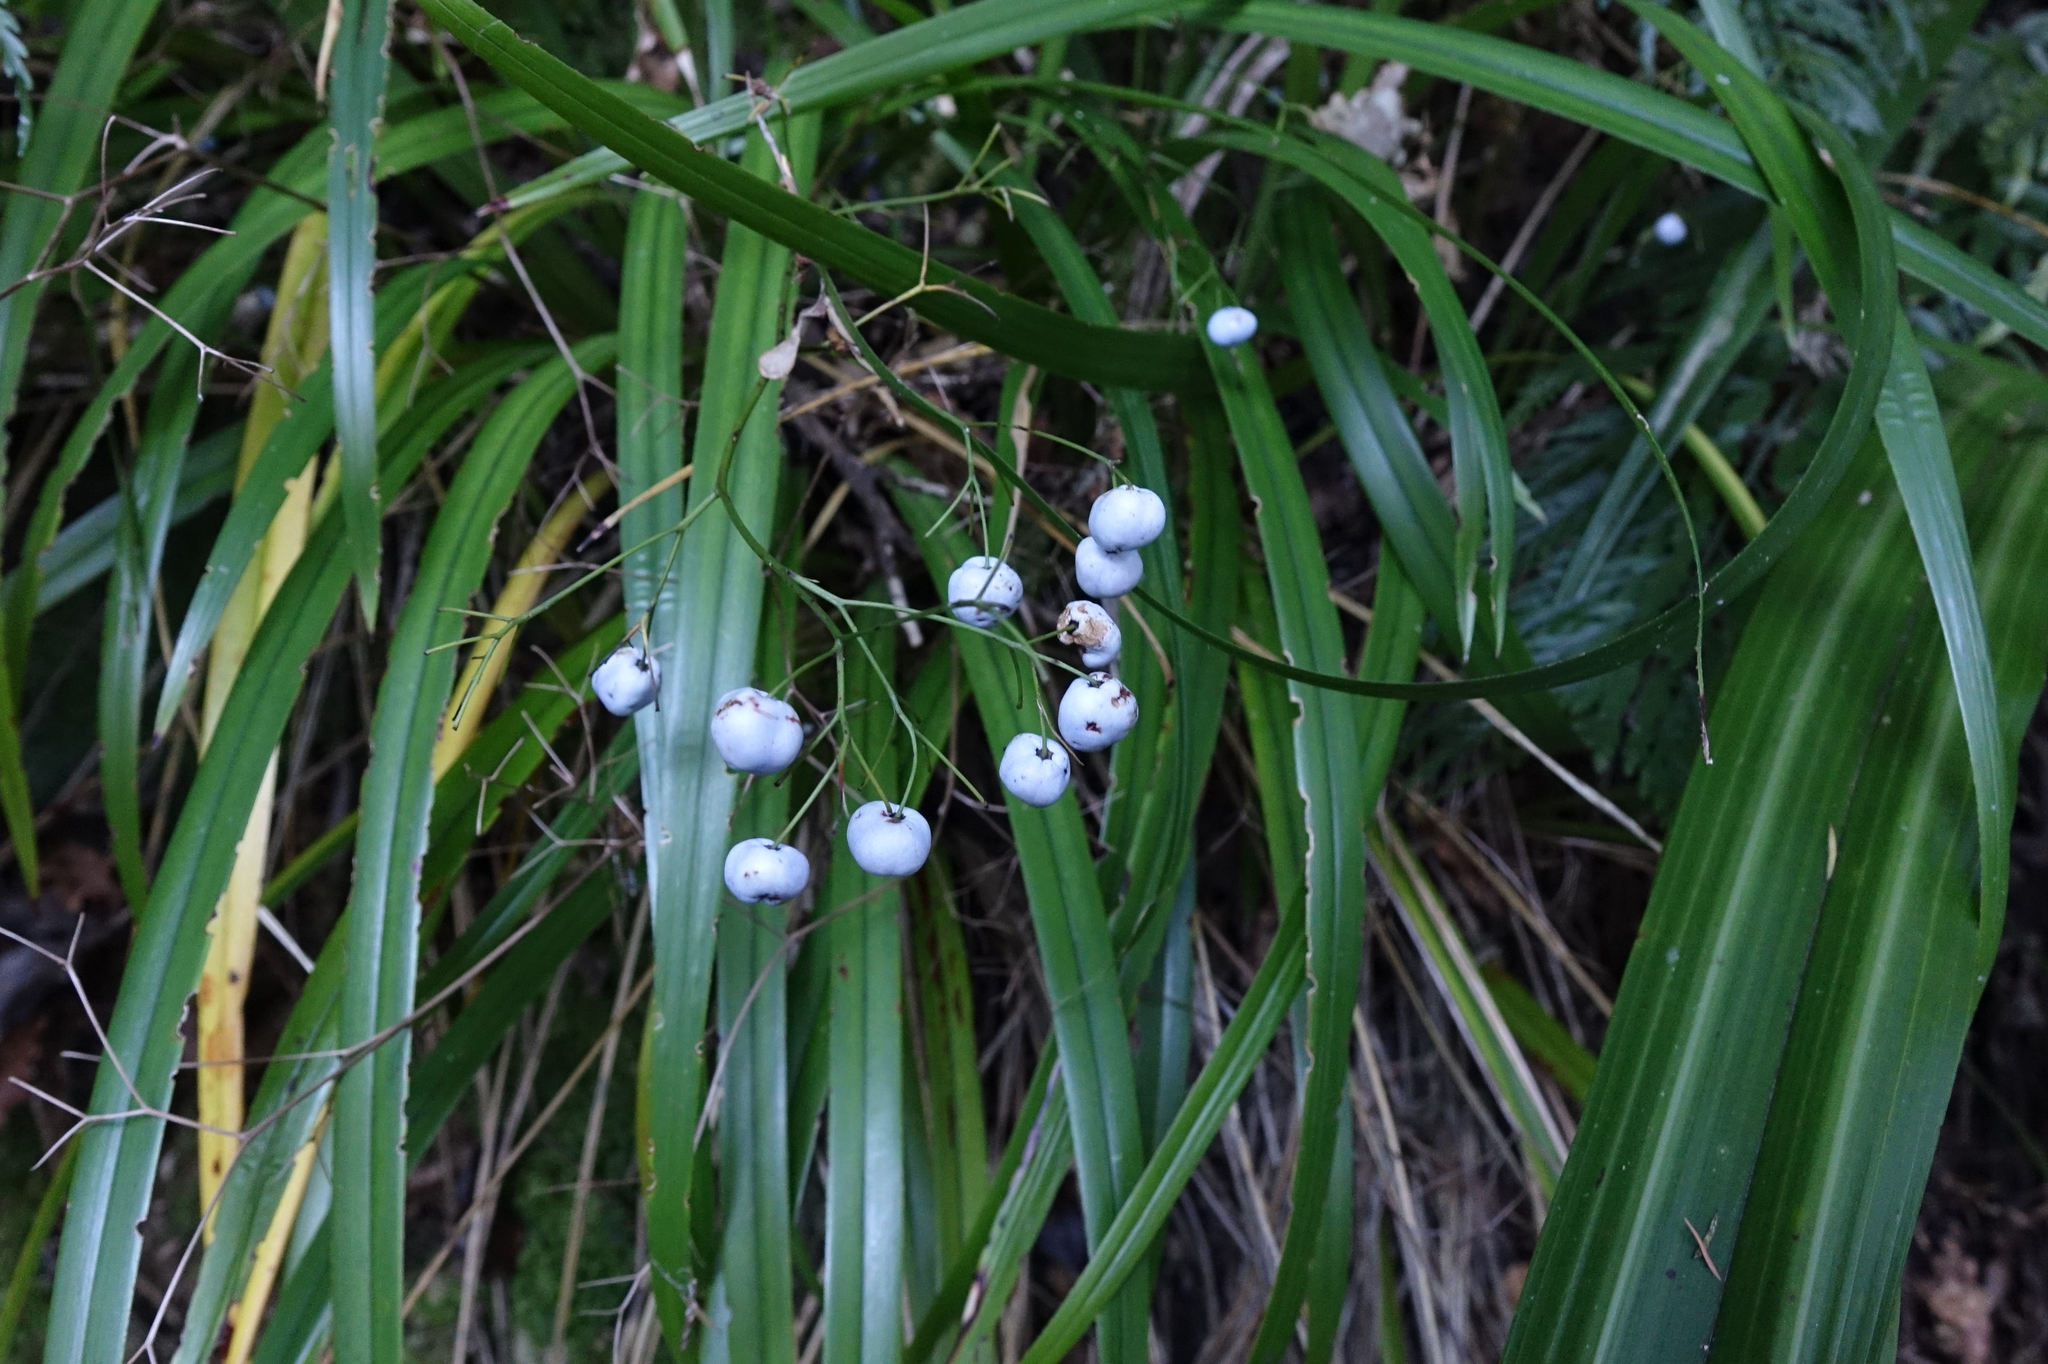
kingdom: Plantae
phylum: Tracheophyta
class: Liliopsida
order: Asparagales
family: Asphodelaceae
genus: Dianella
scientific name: Dianella nigra
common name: New zealand-blueberry
